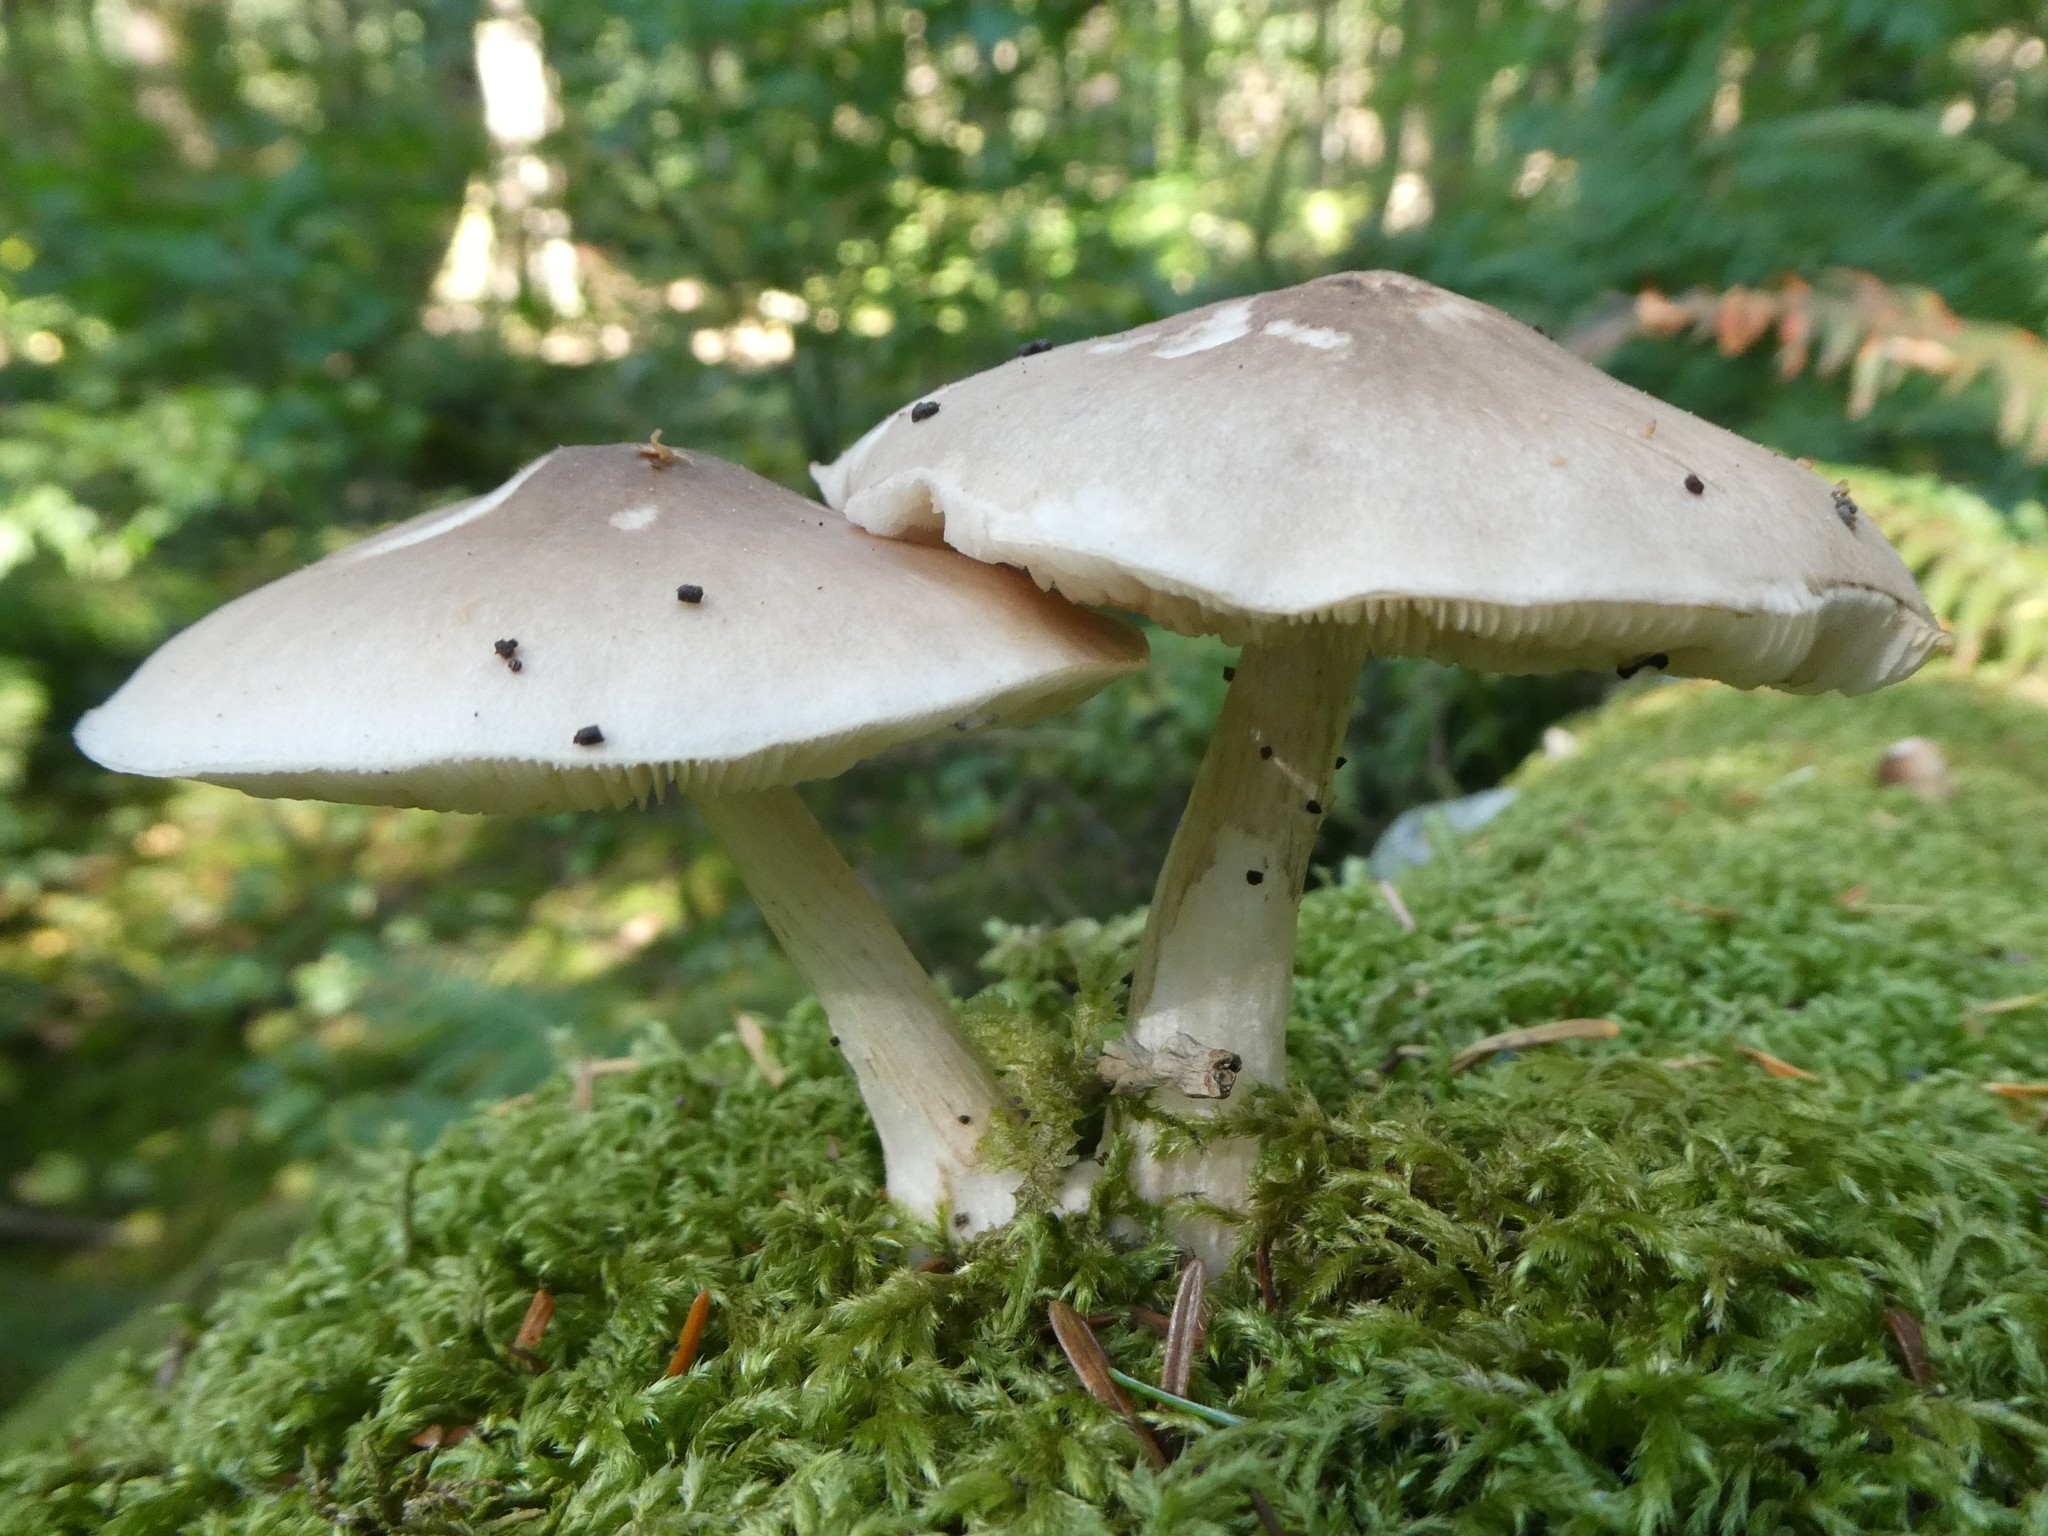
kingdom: Fungi
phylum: Basidiomycota
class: Agaricomycetes
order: Agaricales
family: Pluteaceae
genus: Pluteus
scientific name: Pluteus exilis
